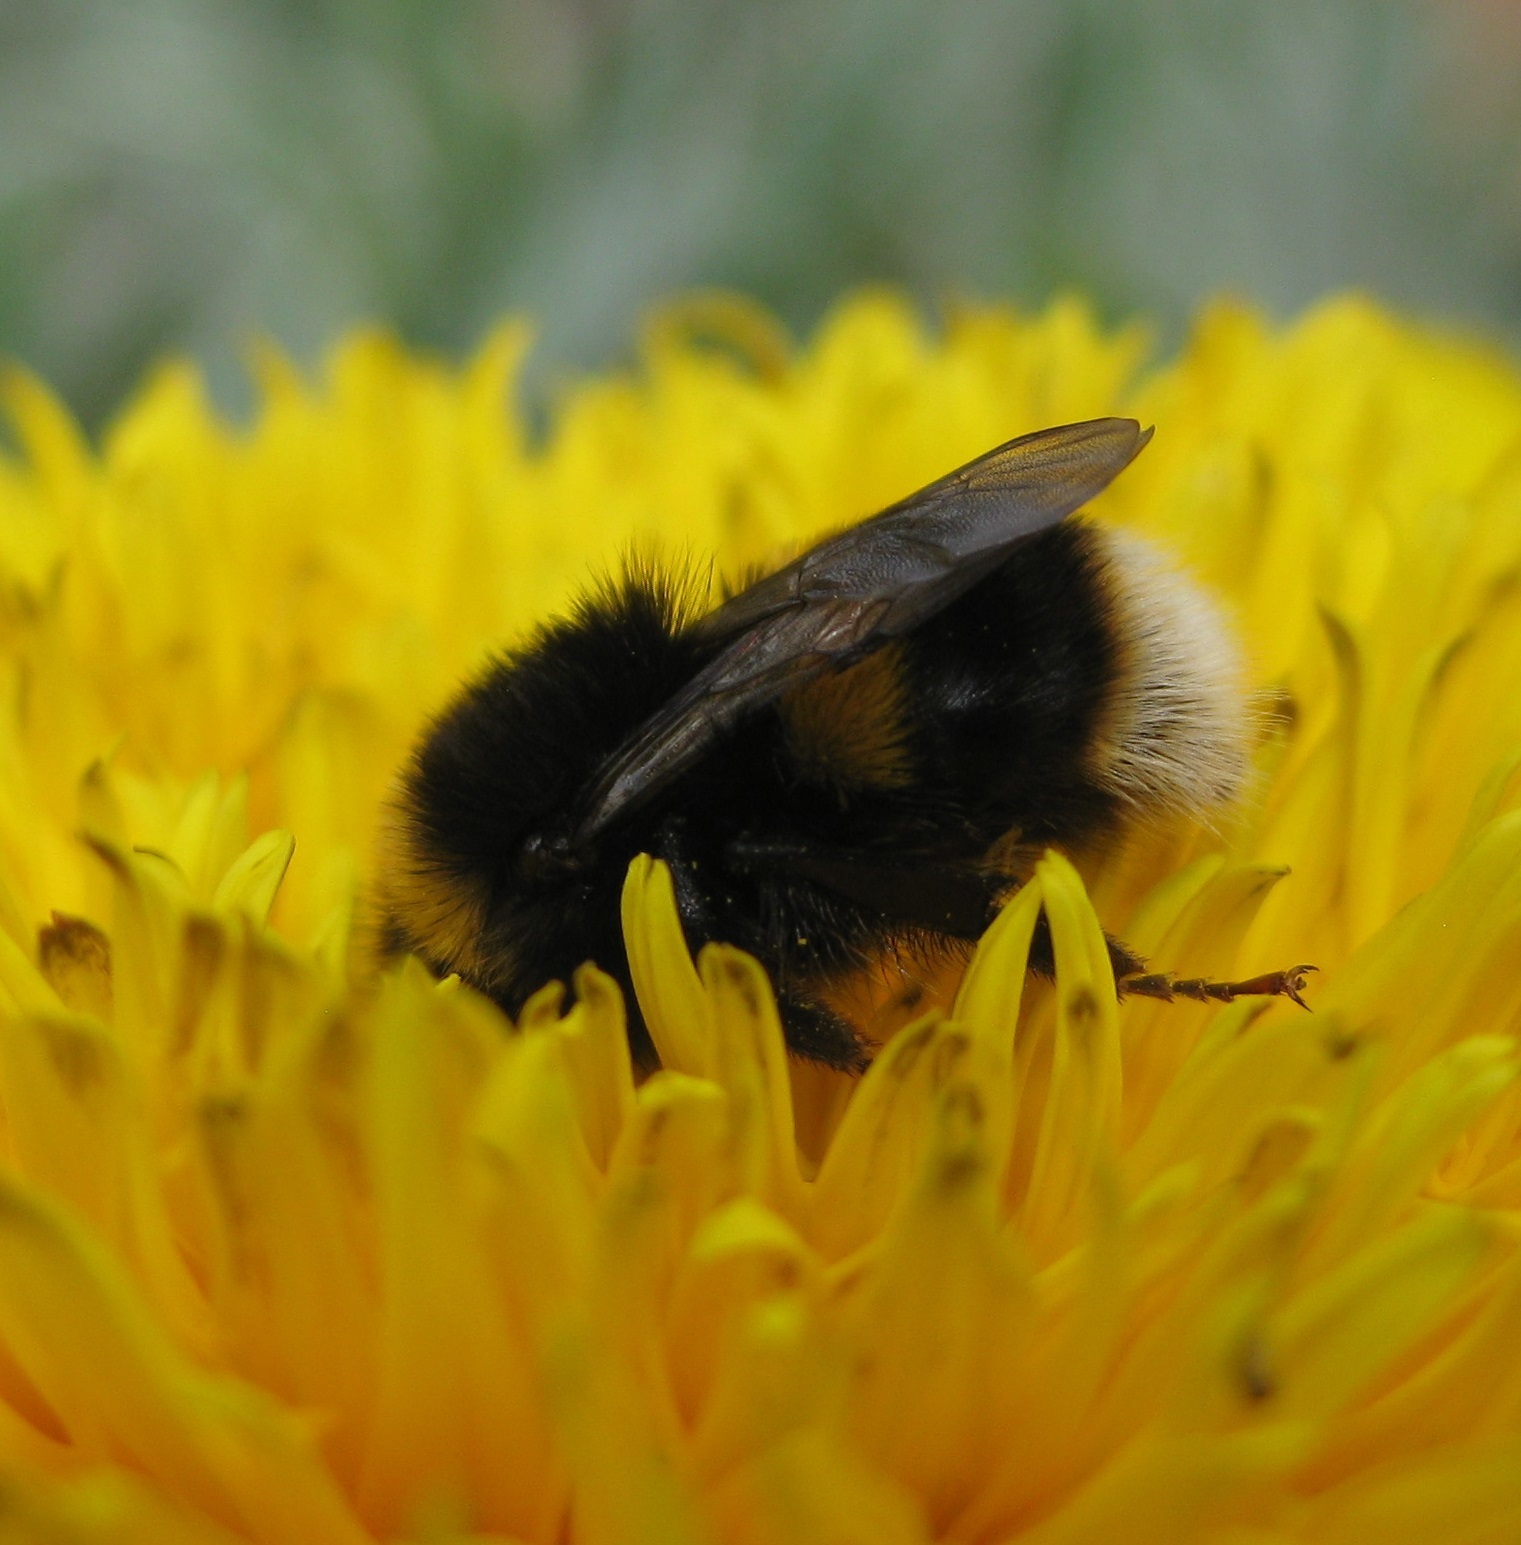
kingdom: Animalia
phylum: Arthropoda
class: Insecta
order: Hymenoptera
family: Apidae
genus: Bombus
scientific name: Bombus terrestris
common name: Buff-tailed bumblebee
